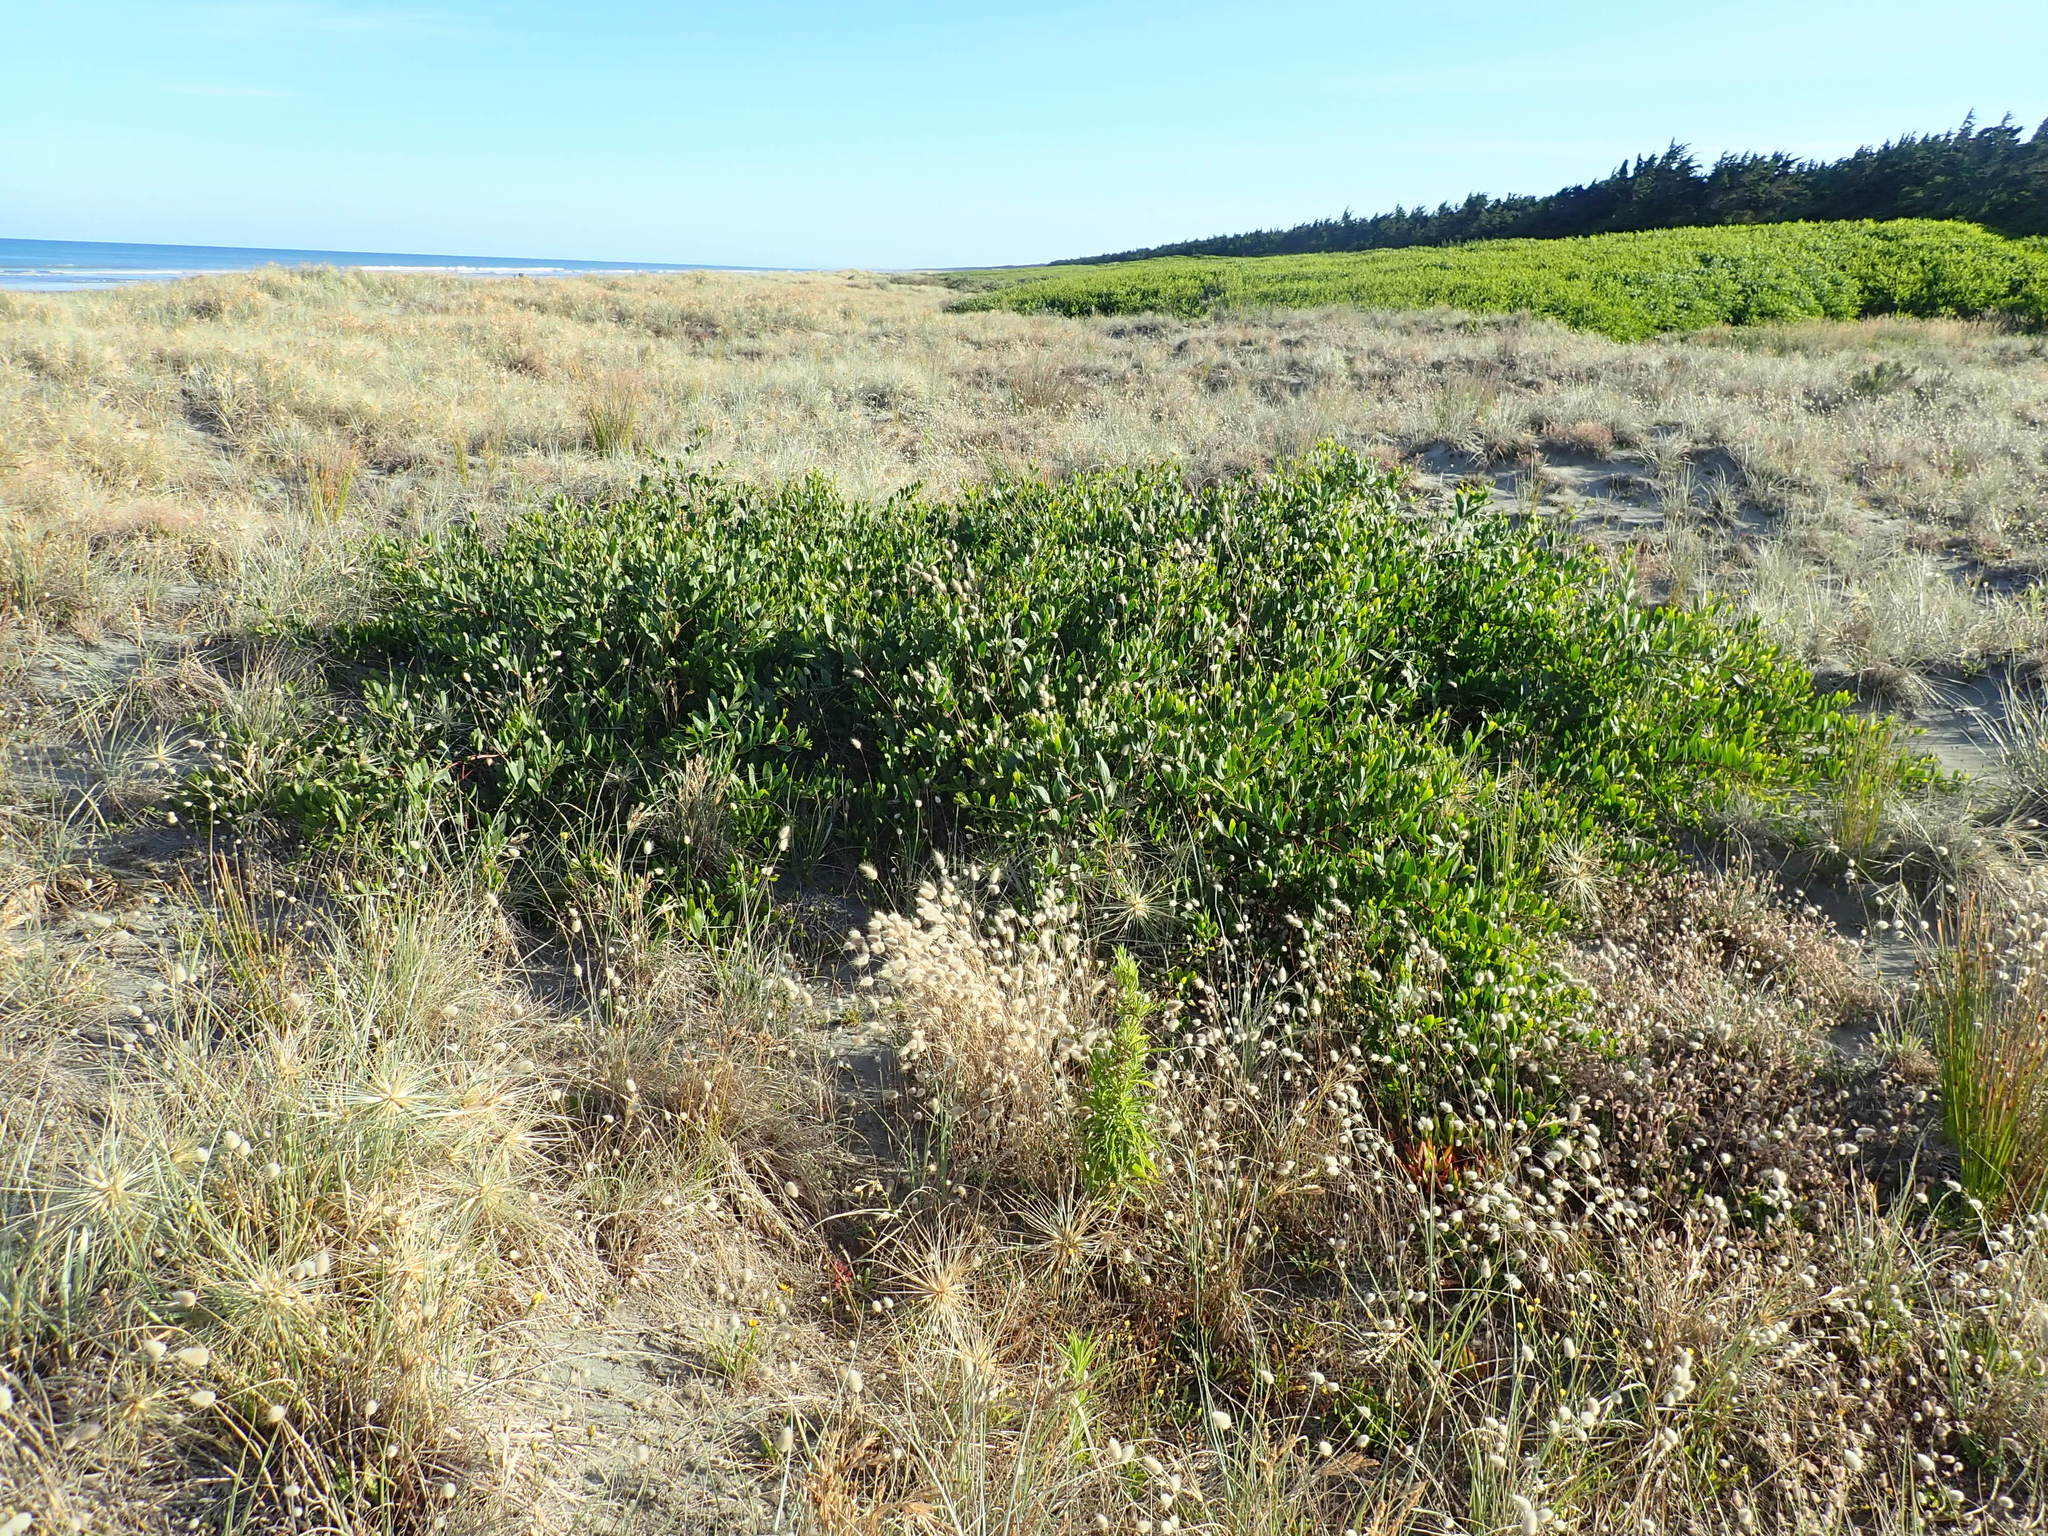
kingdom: Plantae
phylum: Tracheophyta
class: Magnoliopsida
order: Fabales
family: Fabaceae
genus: Acacia
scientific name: Acacia longifolia
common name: Sydney golden wattle
